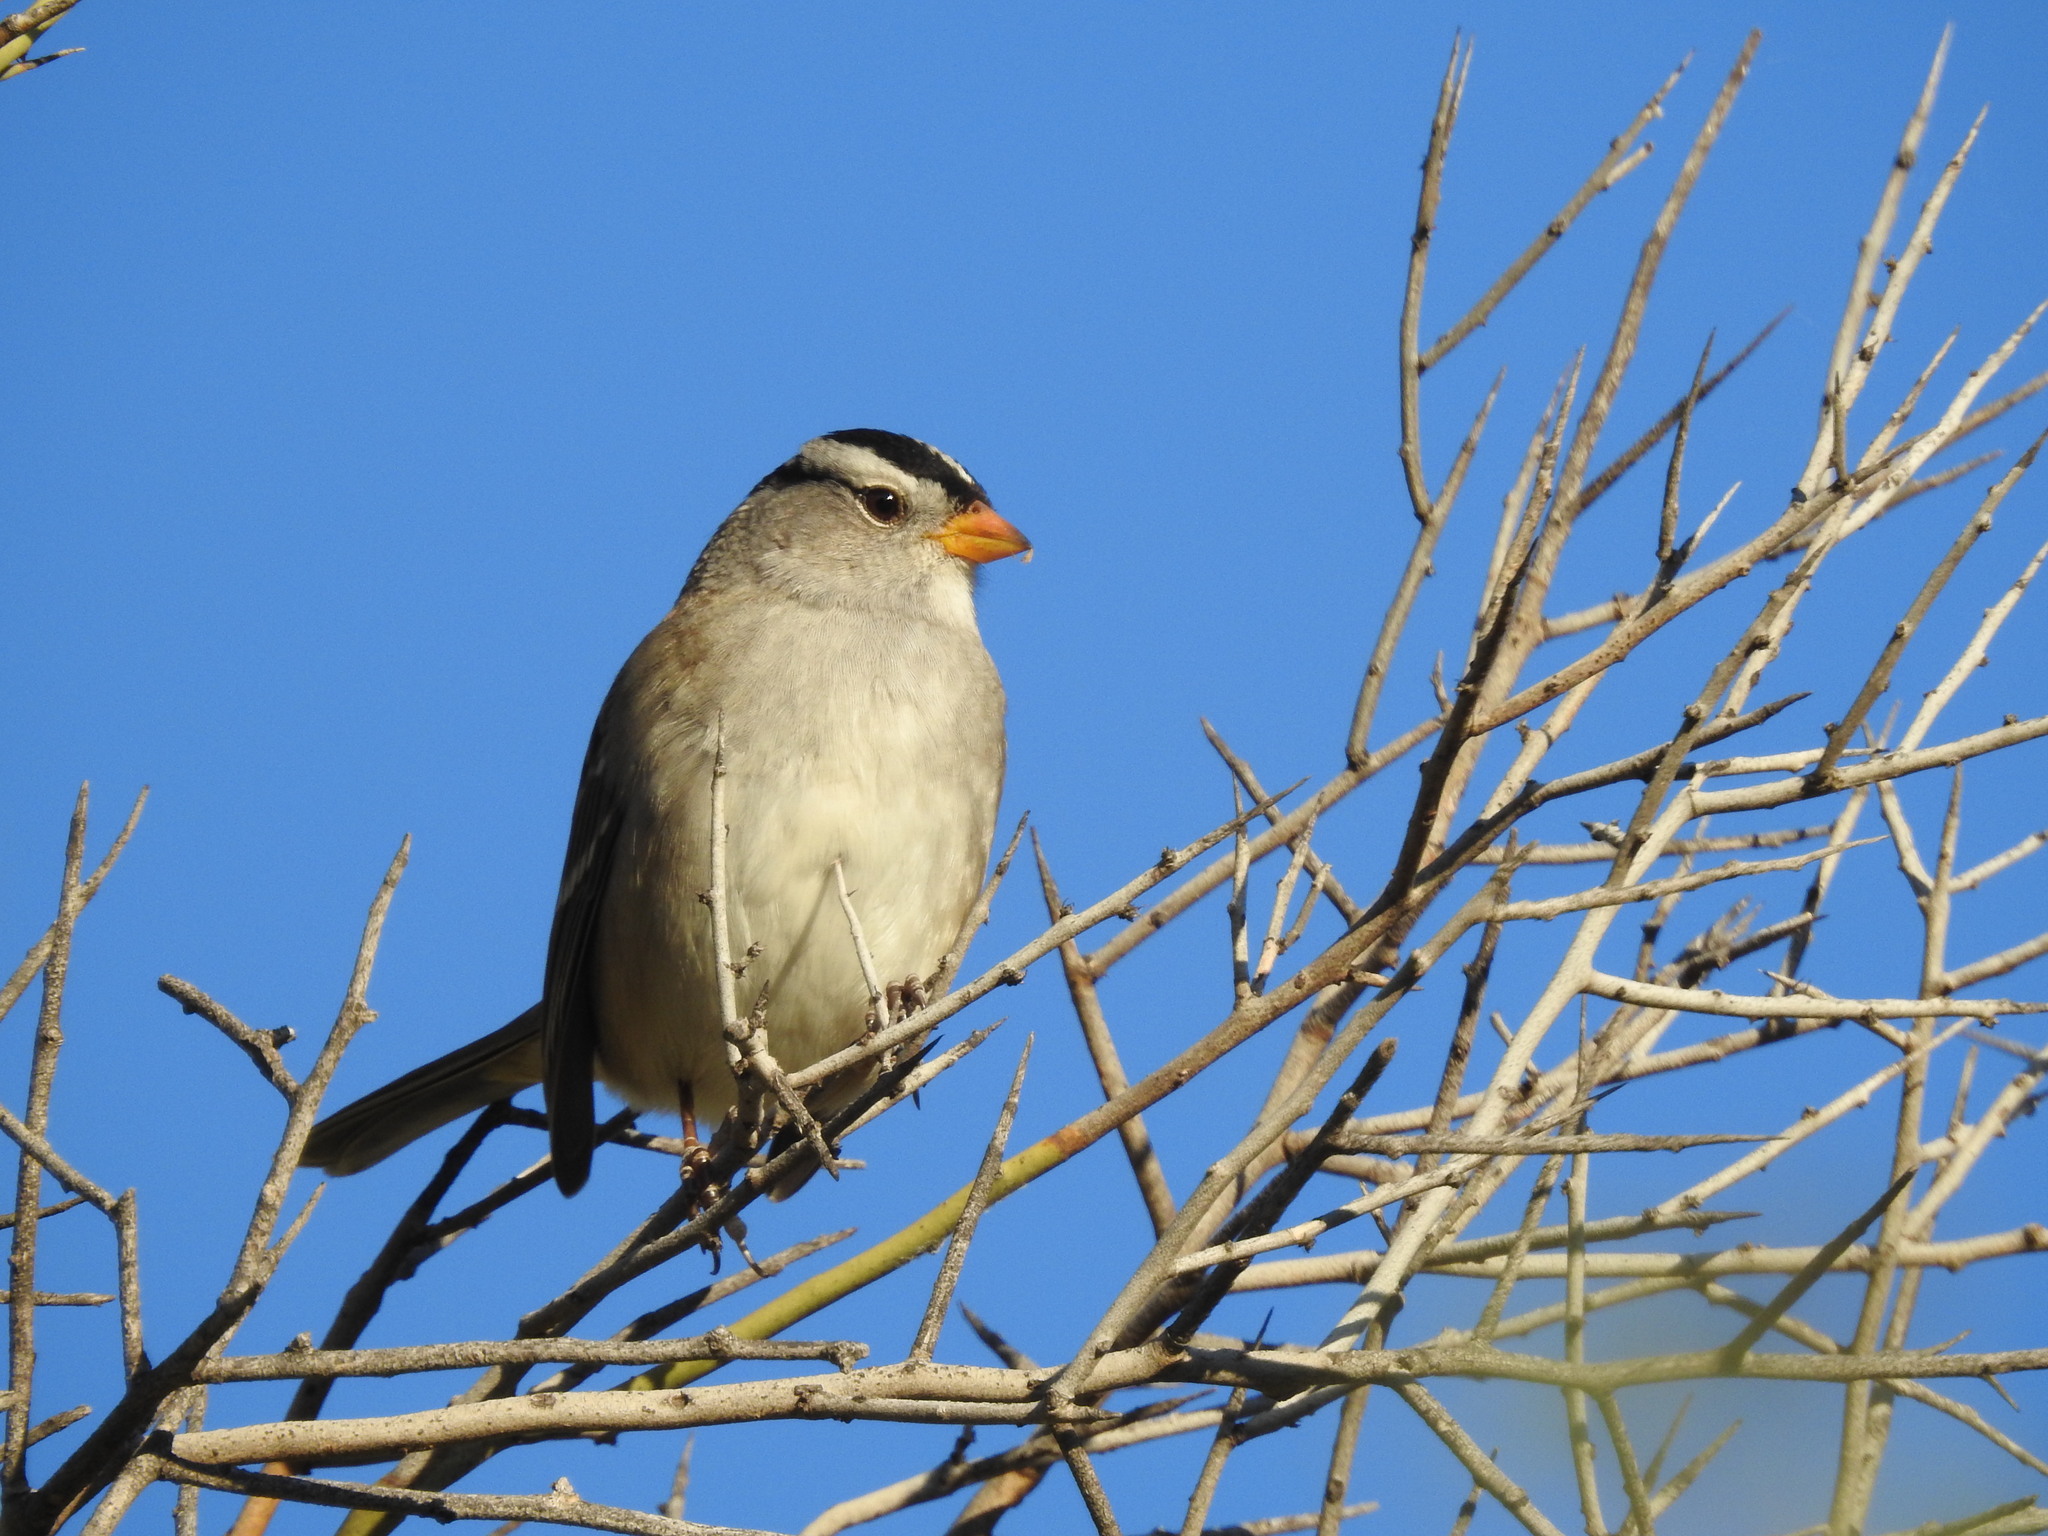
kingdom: Animalia
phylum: Chordata
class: Aves
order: Passeriformes
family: Passerellidae
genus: Zonotrichia
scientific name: Zonotrichia leucophrys
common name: White-crowned sparrow
